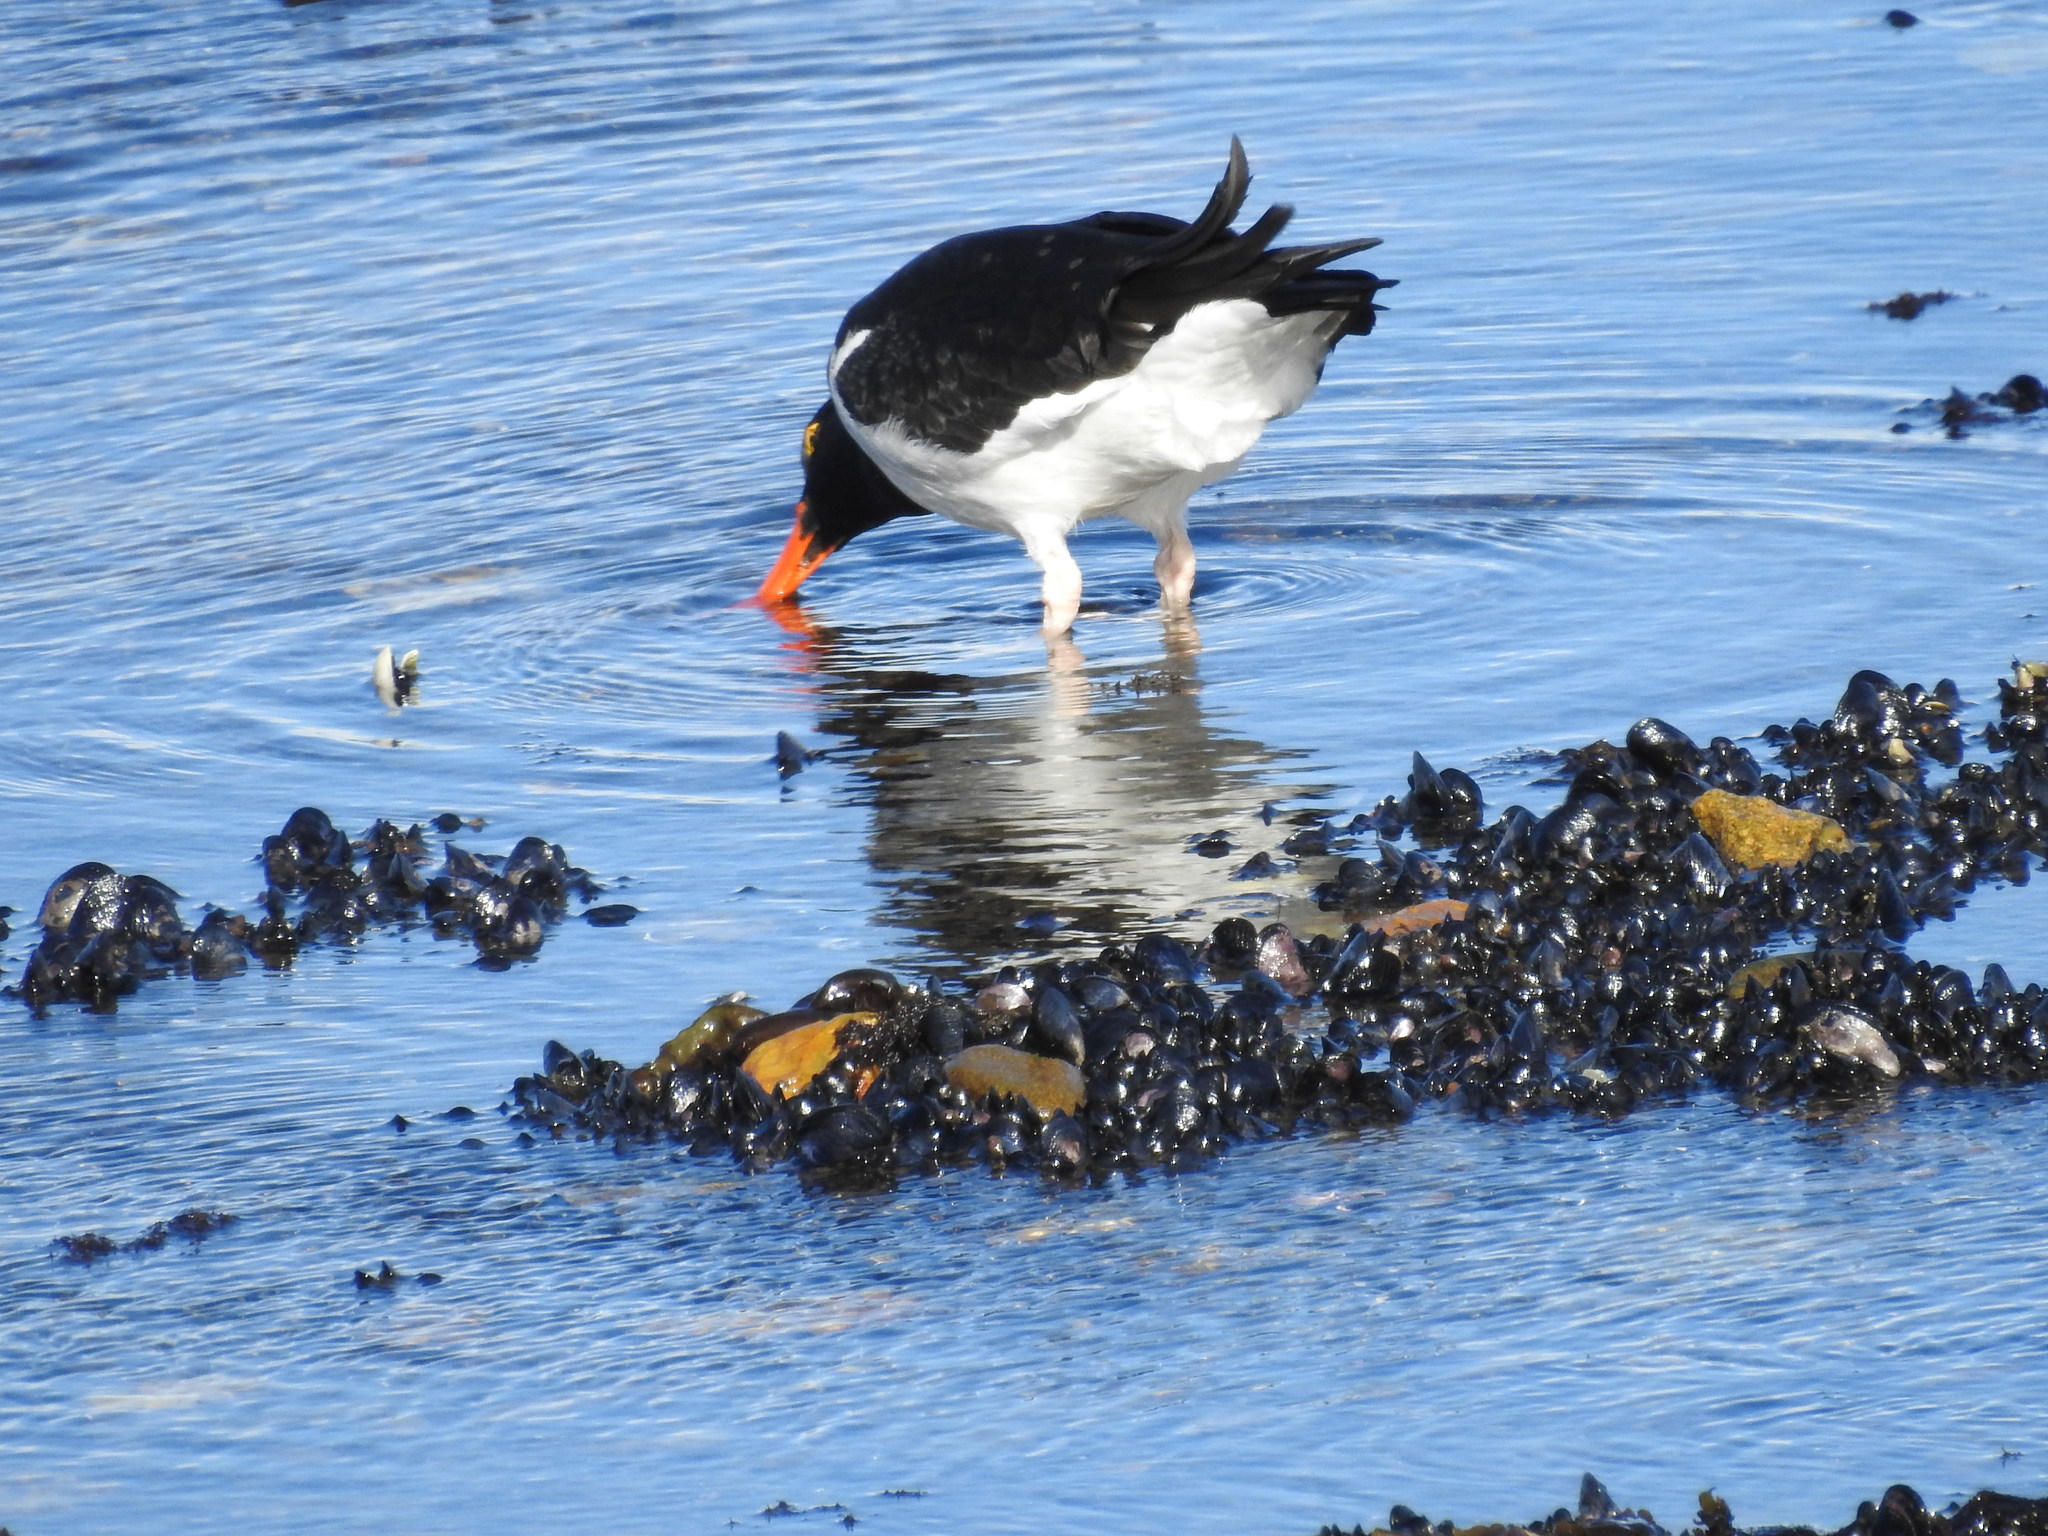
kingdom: Animalia
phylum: Chordata
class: Aves
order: Charadriiformes
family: Haematopodidae
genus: Haematopus
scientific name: Haematopus leucopodus
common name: Magellanic oystercatcher
